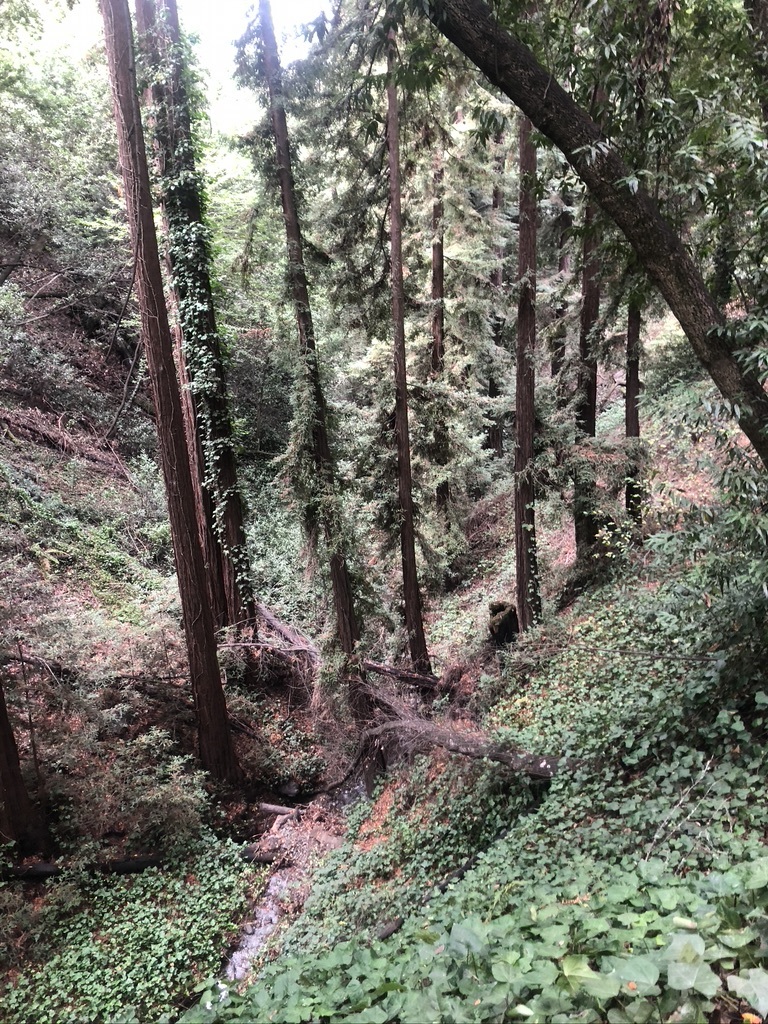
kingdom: Plantae
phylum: Tracheophyta
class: Pinopsida
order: Pinales
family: Cupressaceae
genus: Sequoia
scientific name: Sequoia sempervirens
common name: Coast redwood
